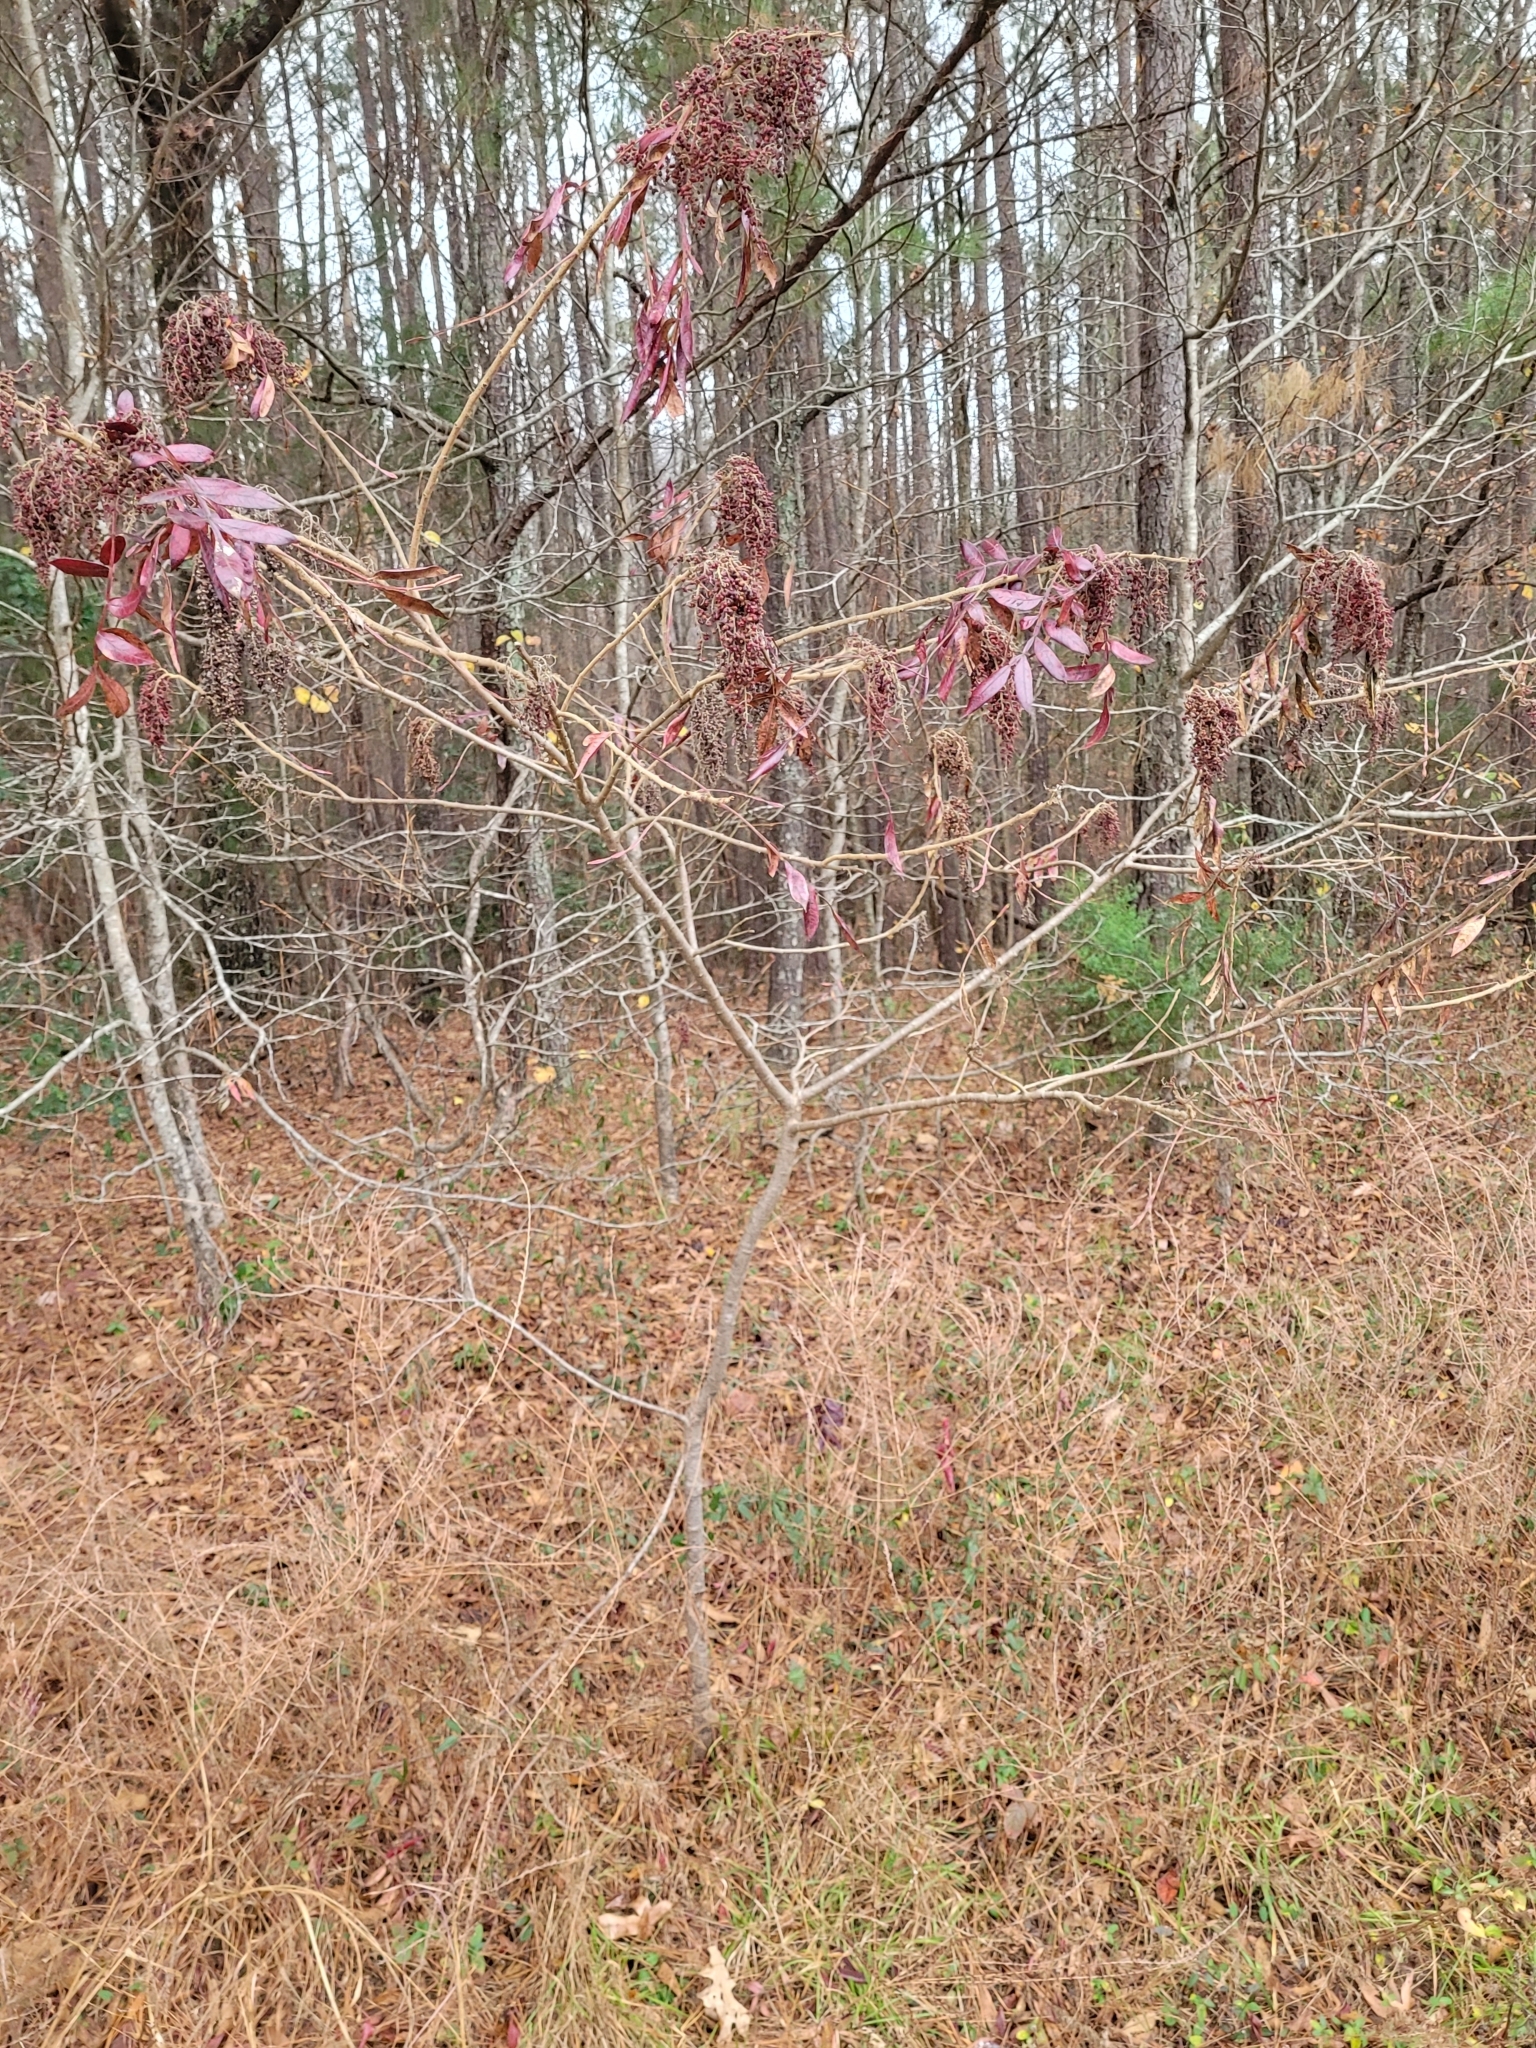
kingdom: Plantae
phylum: Tracheophyta
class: Magnoliopsida
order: Sapindales
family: Anacardiaceae
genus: Rhus
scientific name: Rhus copallina
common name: Shining sumac
